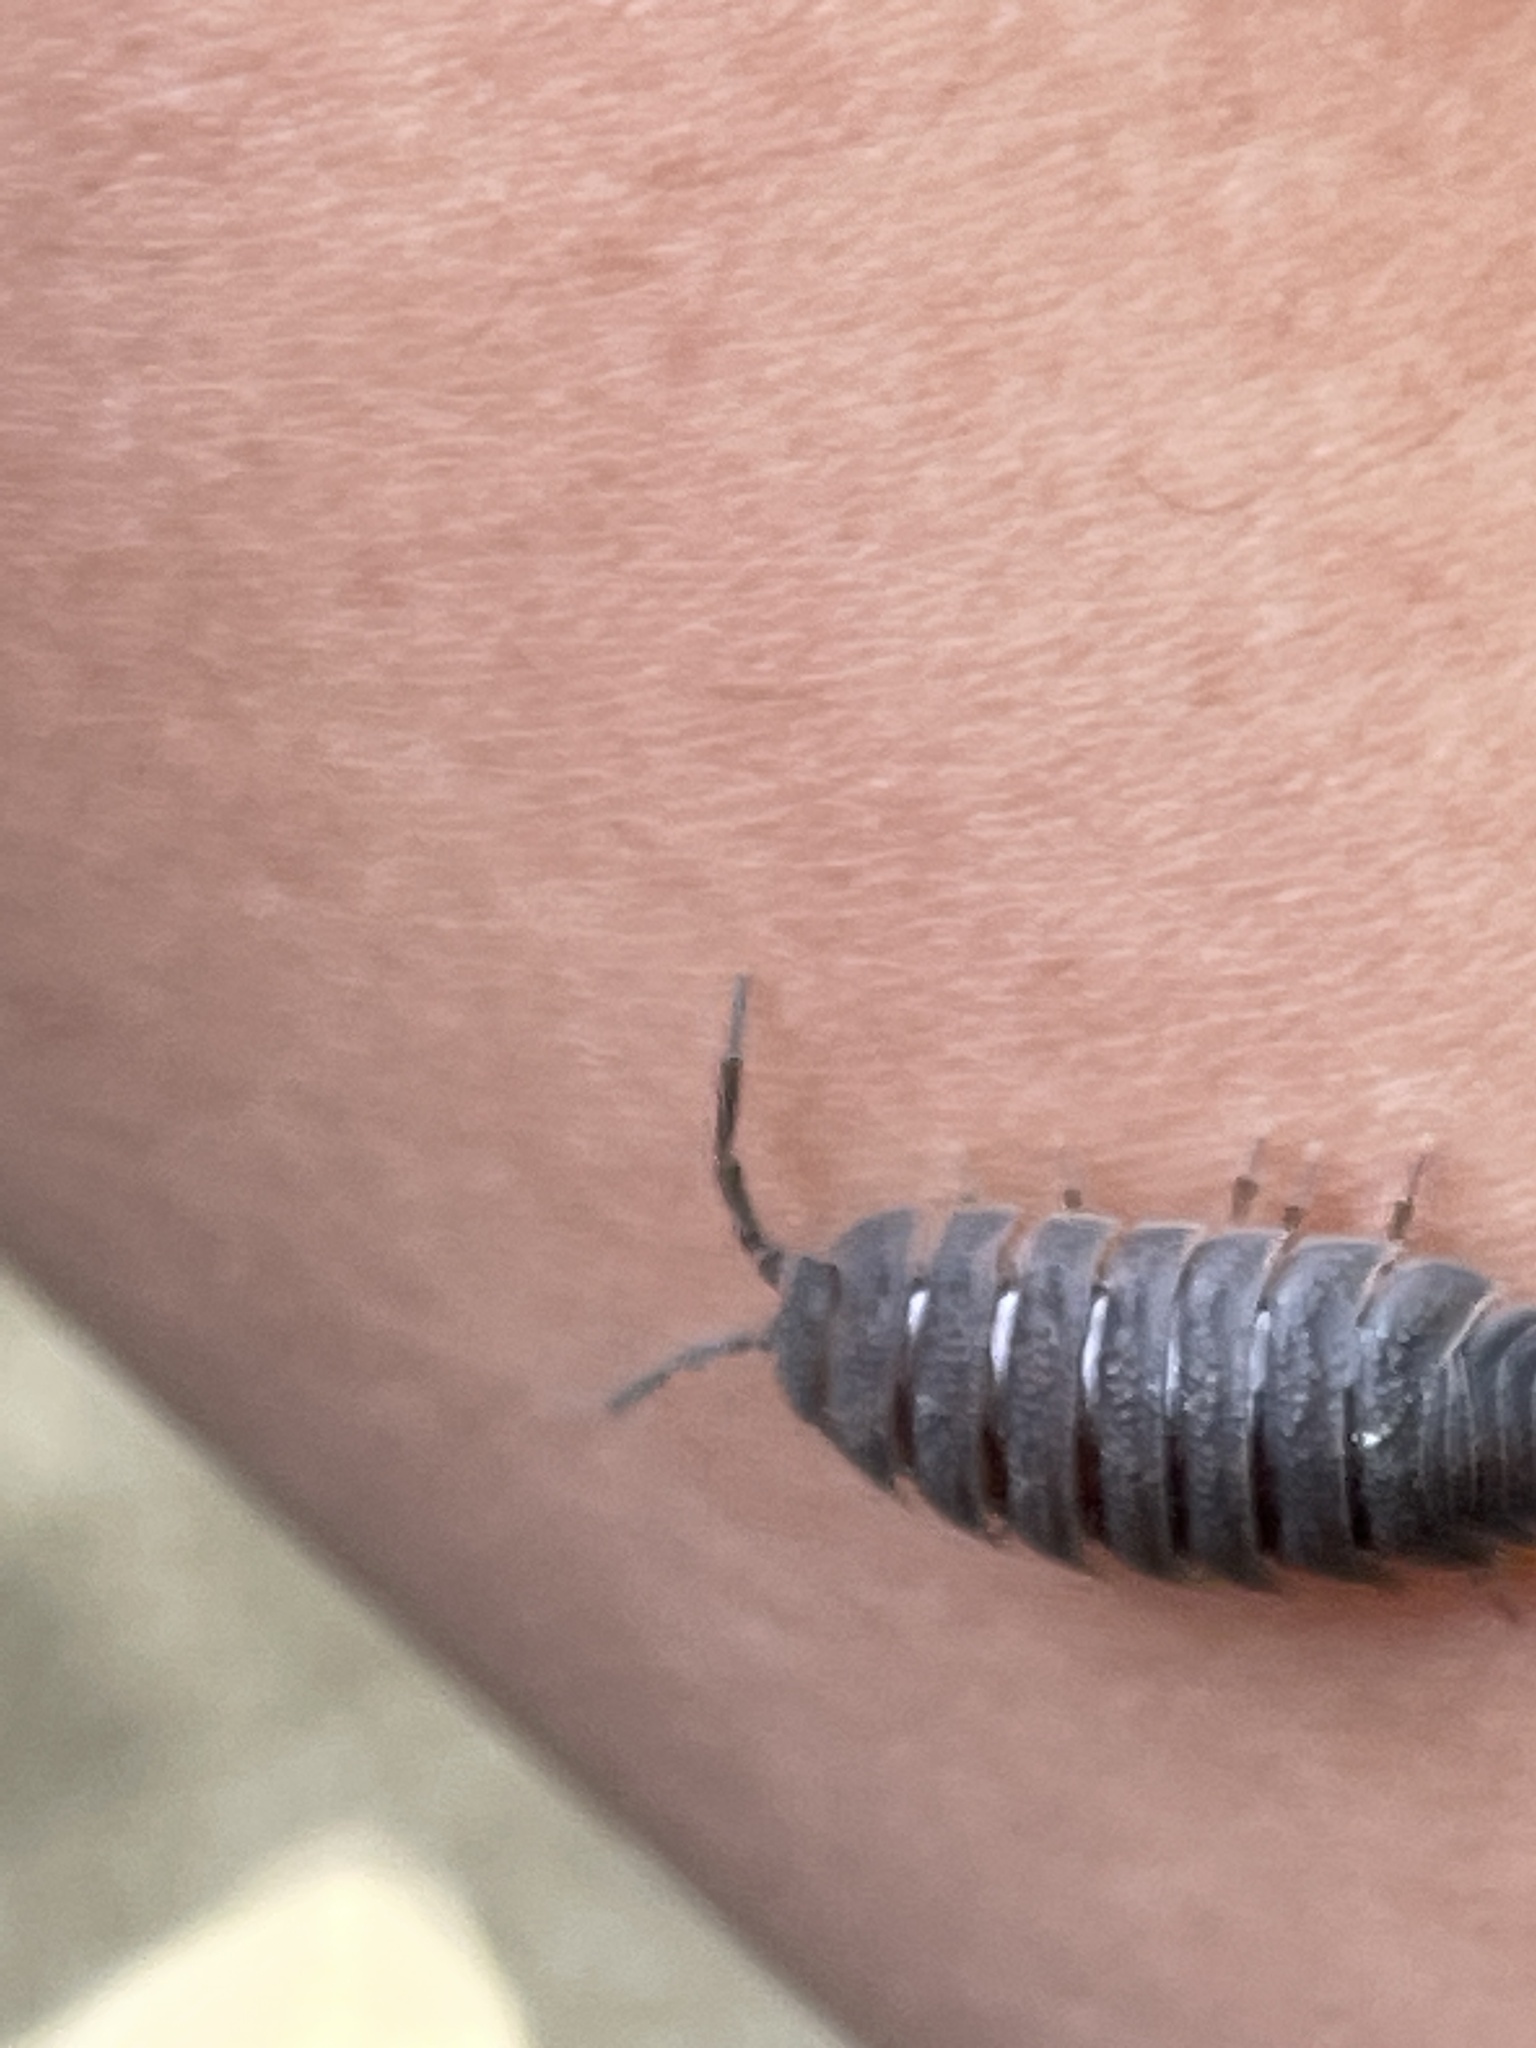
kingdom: Animalia
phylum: Arthropoda
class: Malacostraca
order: Isopoda
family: Porcellionidae
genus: Porcellio
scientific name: Porcellio scaber
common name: Common rough woodlouse
